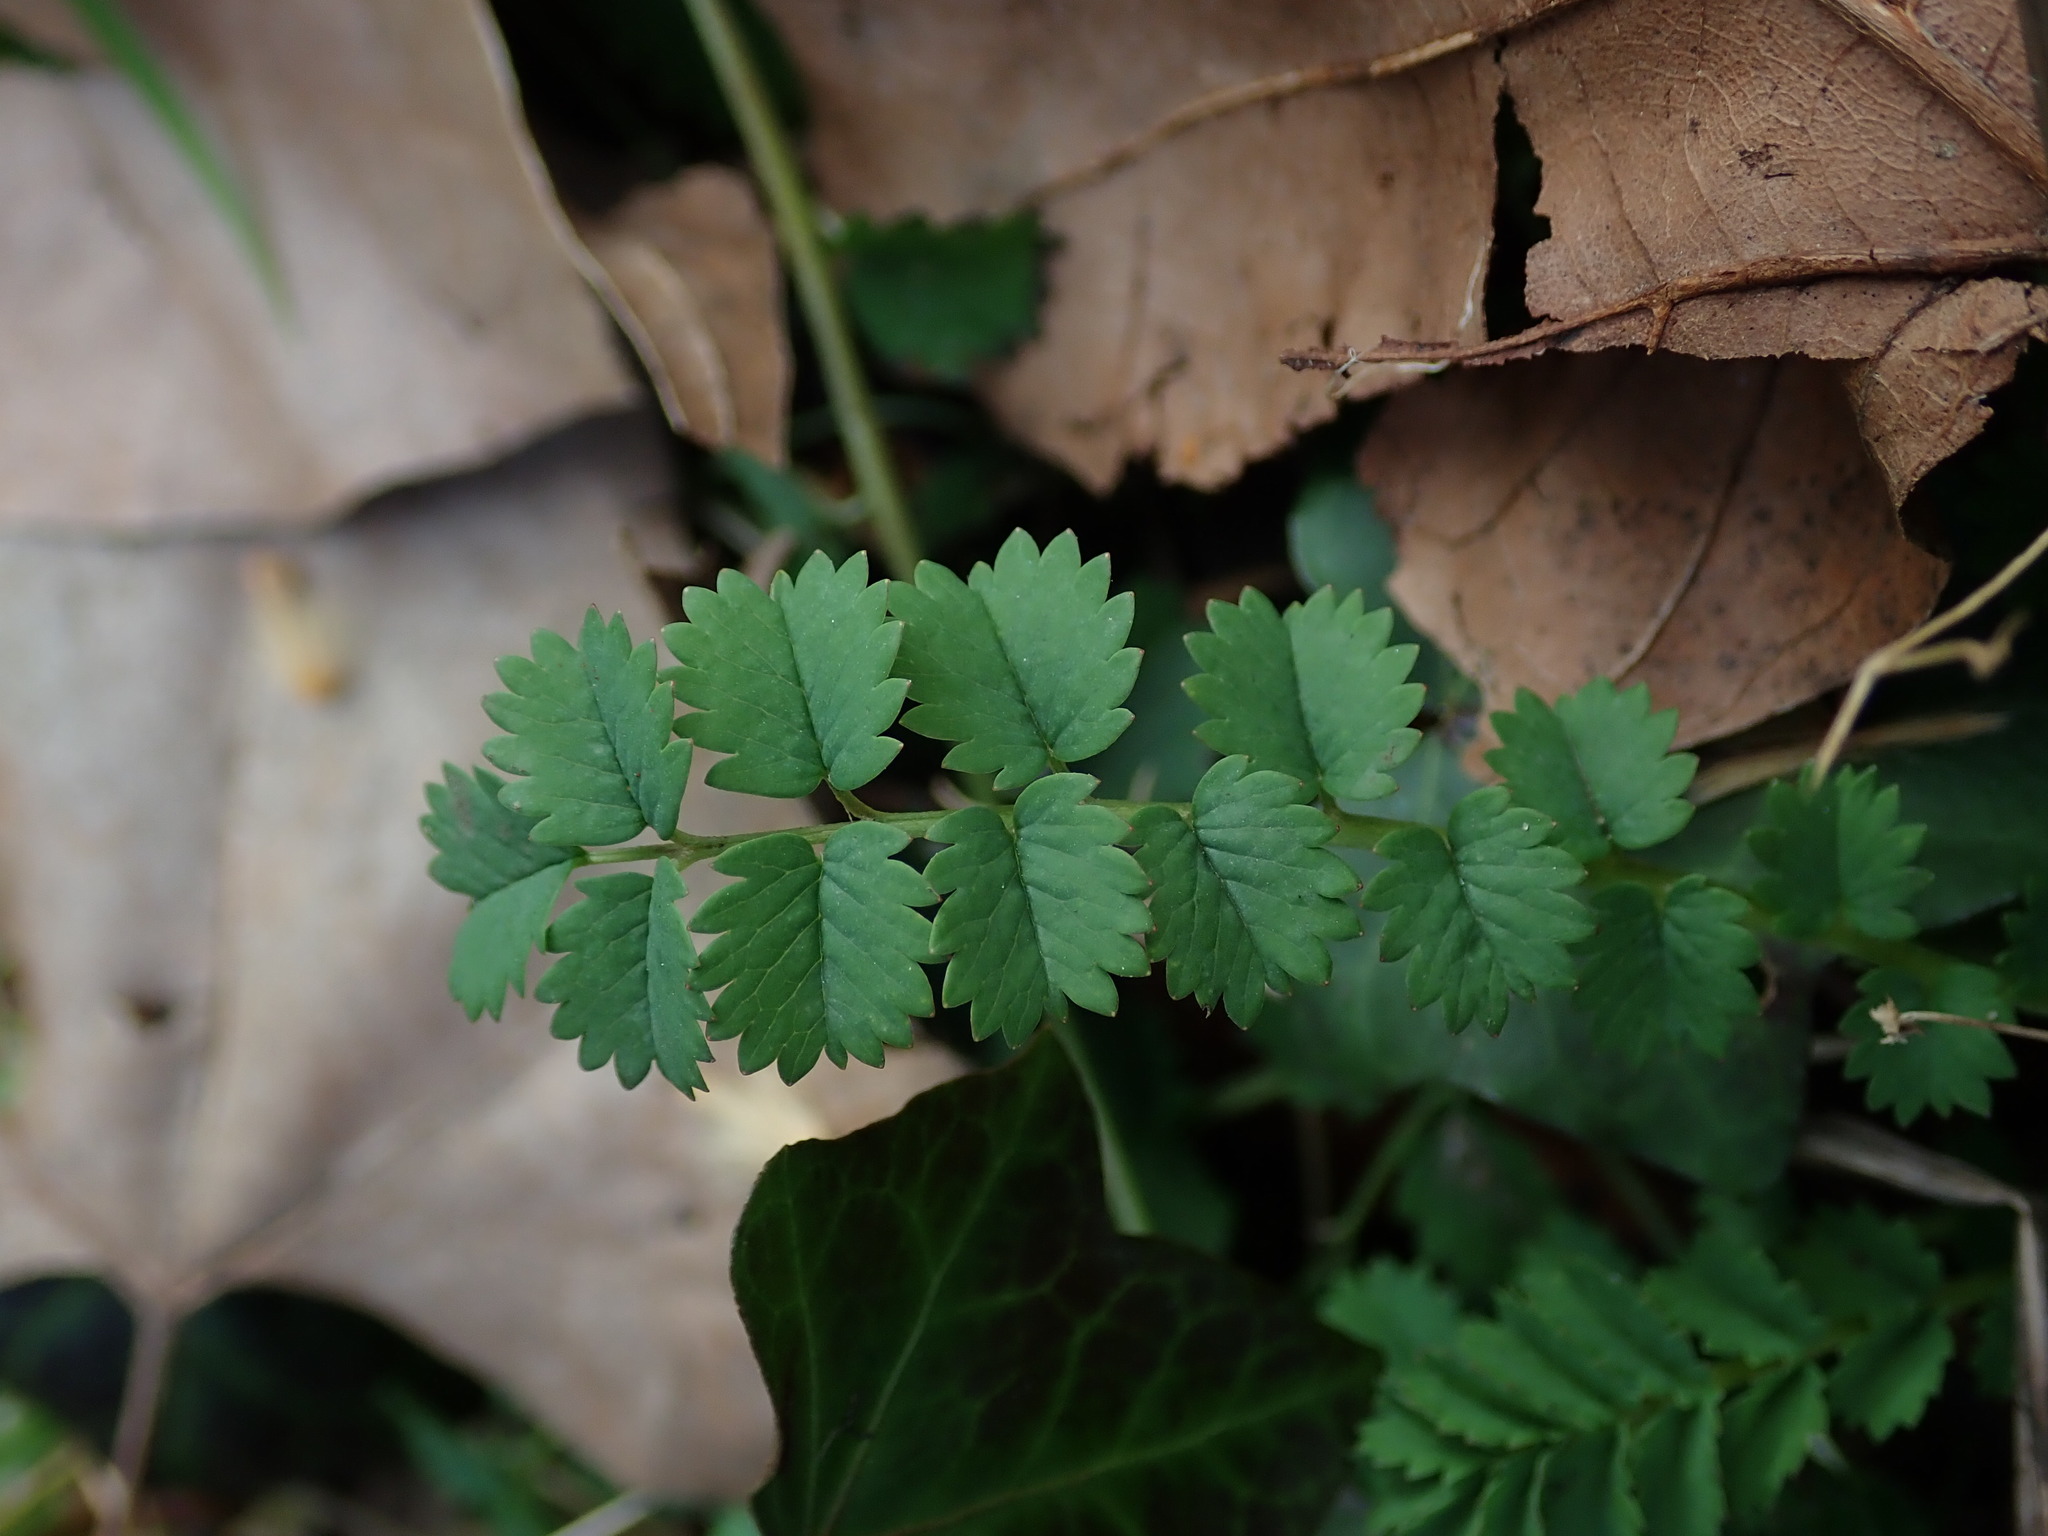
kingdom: Plantae
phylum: Tracheophyta
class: Magnoliopsida
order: Rosales
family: Rosaceae
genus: Poterium
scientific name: Poterium sanguisorba
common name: Salad burnet
